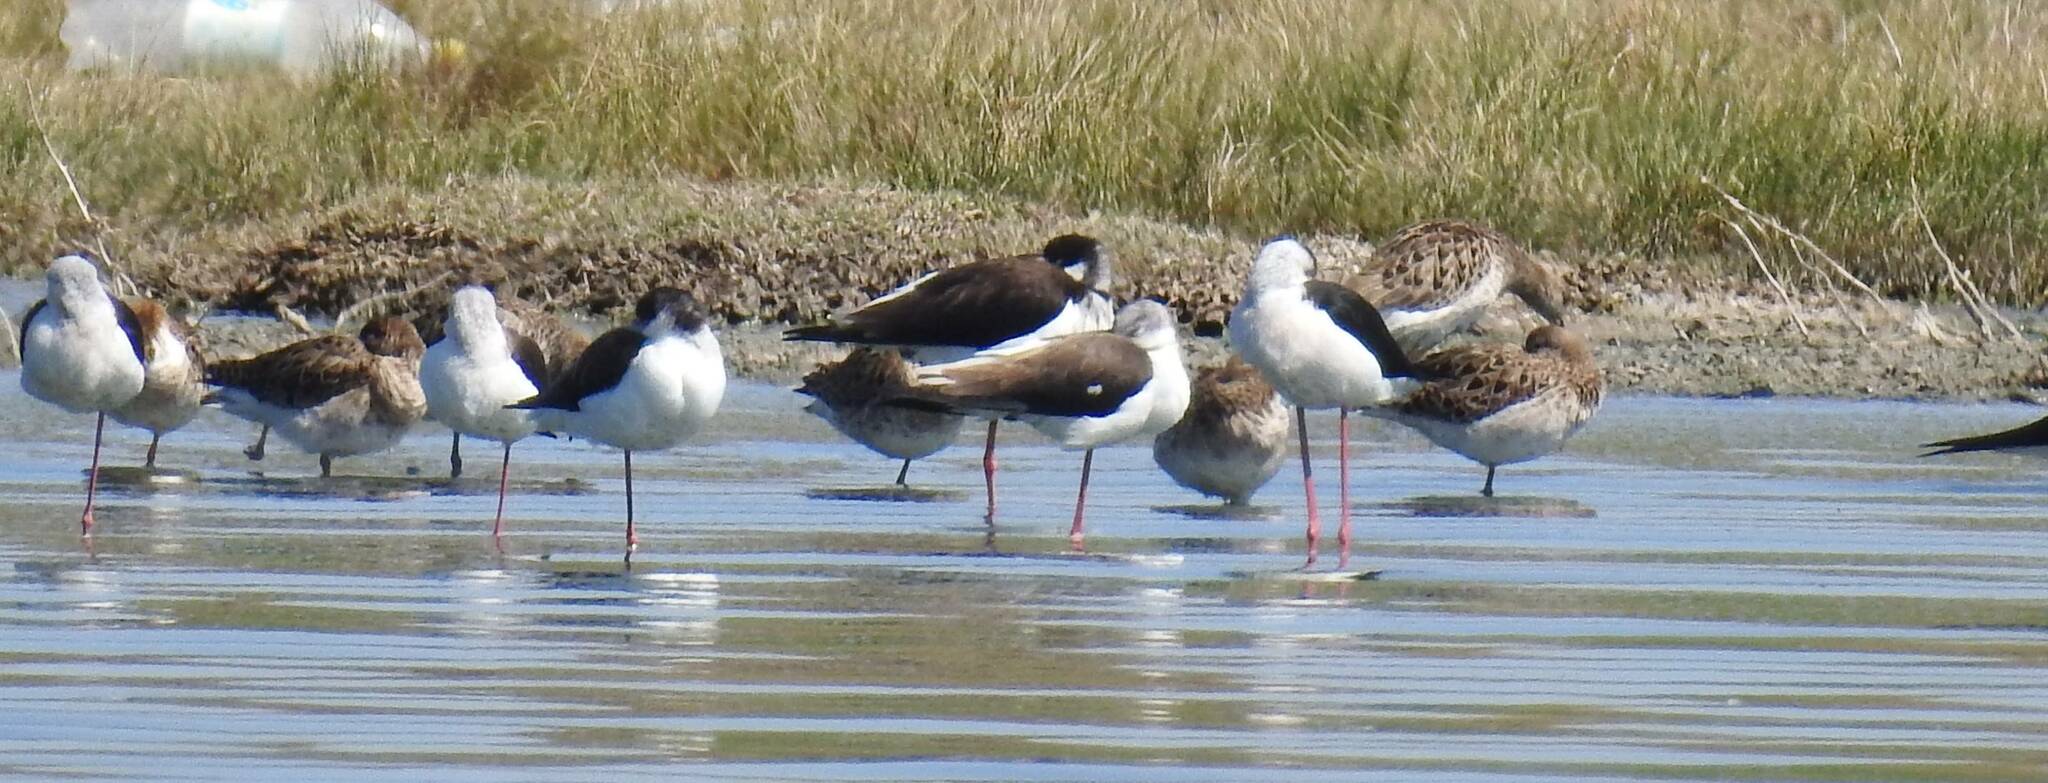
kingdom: Animalia
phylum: Chordata
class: Aves
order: Charadriiformes
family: Recurvirostridae
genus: Himantopus
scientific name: Himantopus himantopus
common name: Black-winged stilt
